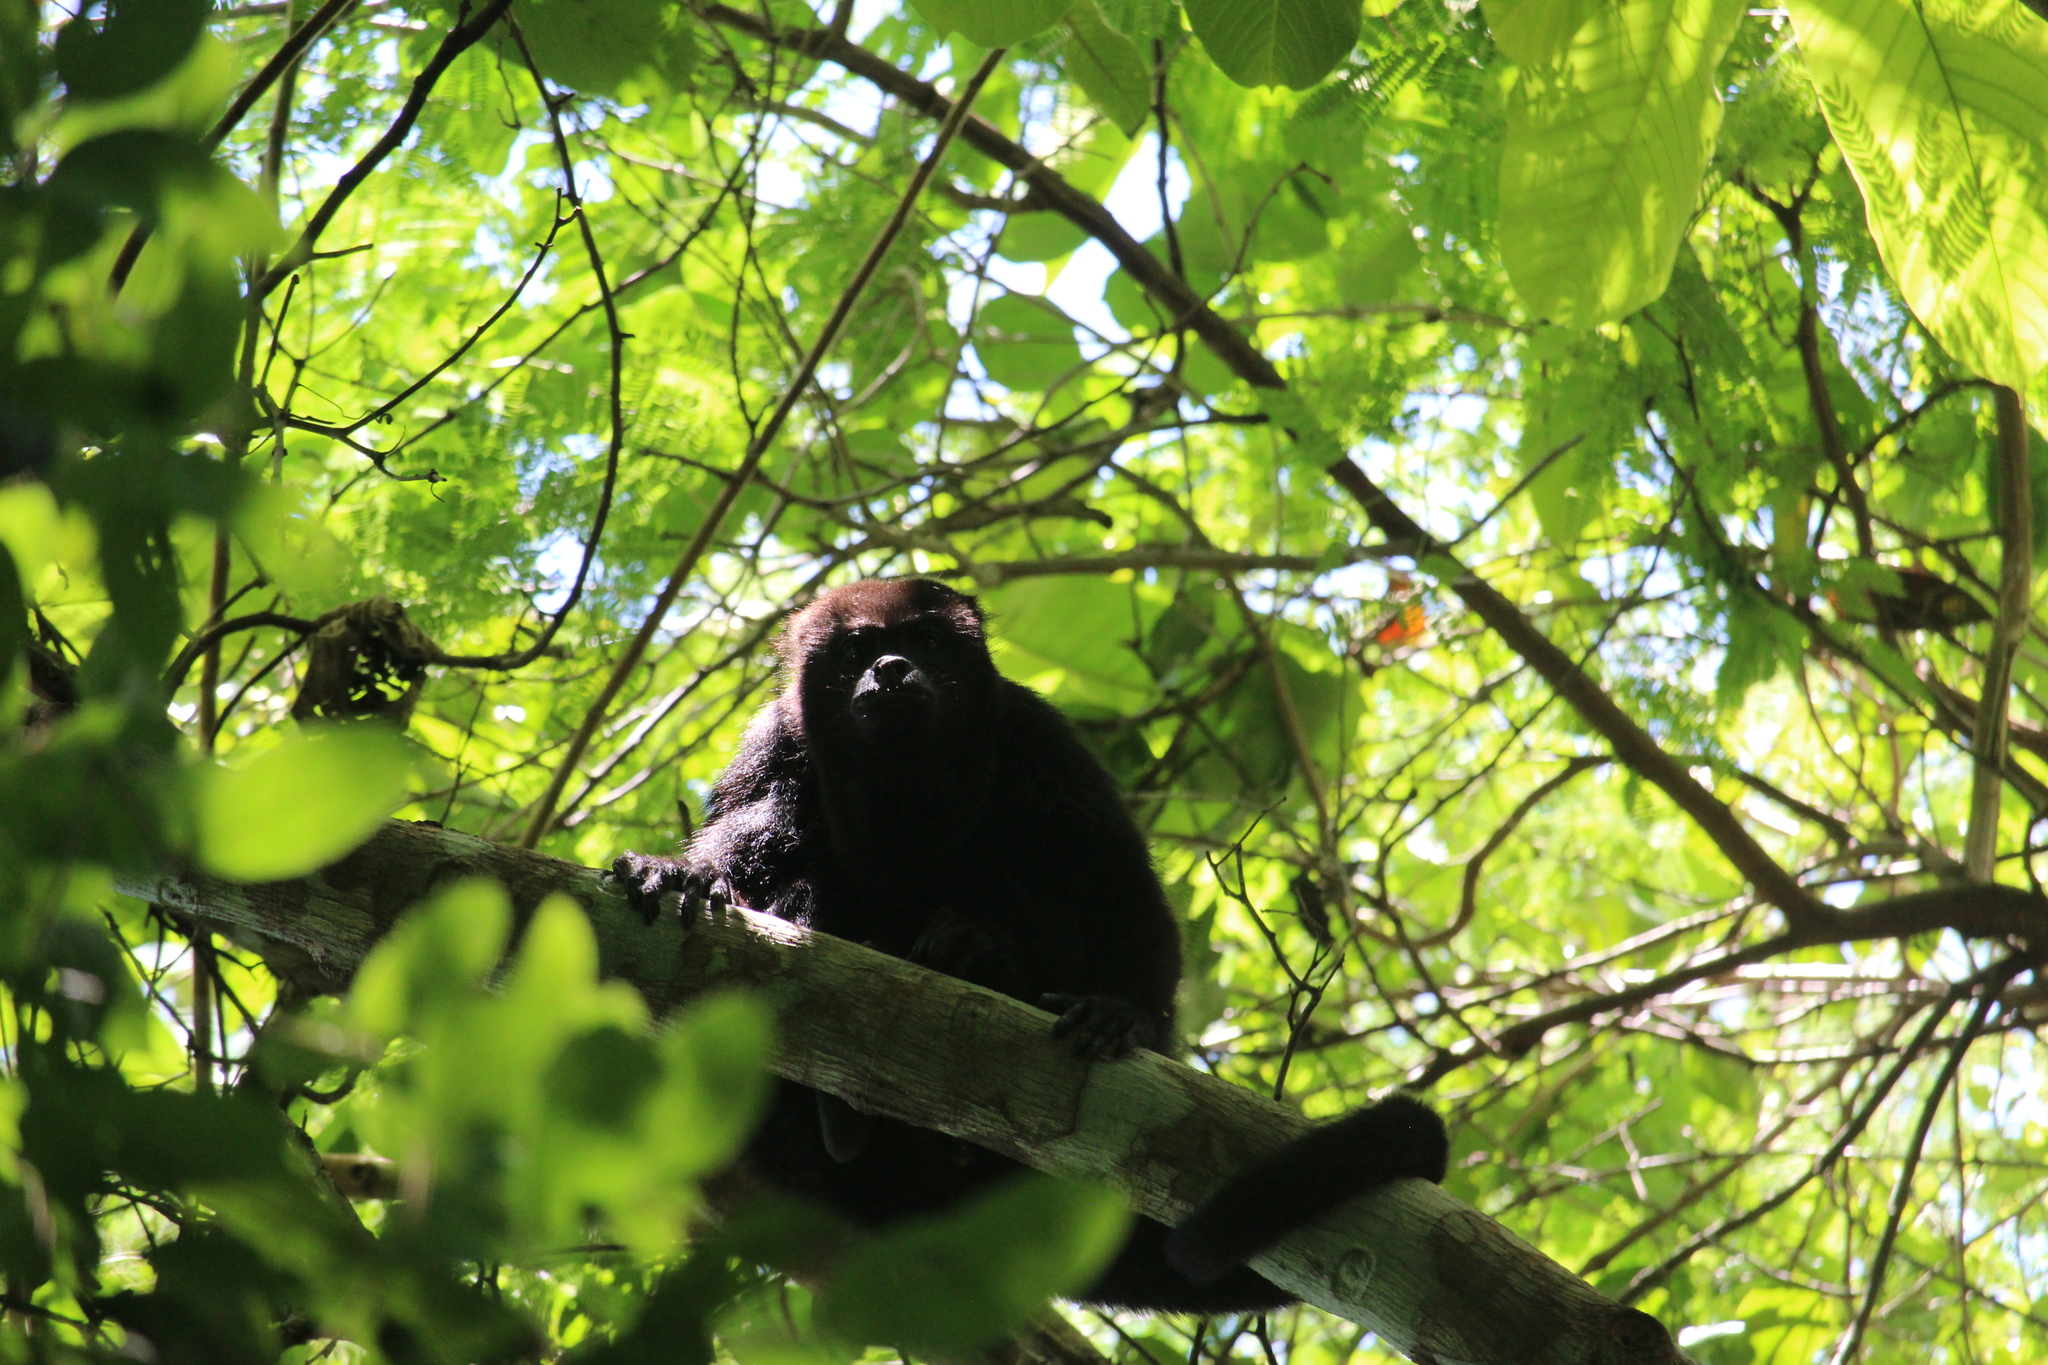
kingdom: Animalia
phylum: Chordata
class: Mammalia
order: Primates
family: Atelidae
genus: Alouatta
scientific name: Alouatta pigra
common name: Guatemalan black howler
